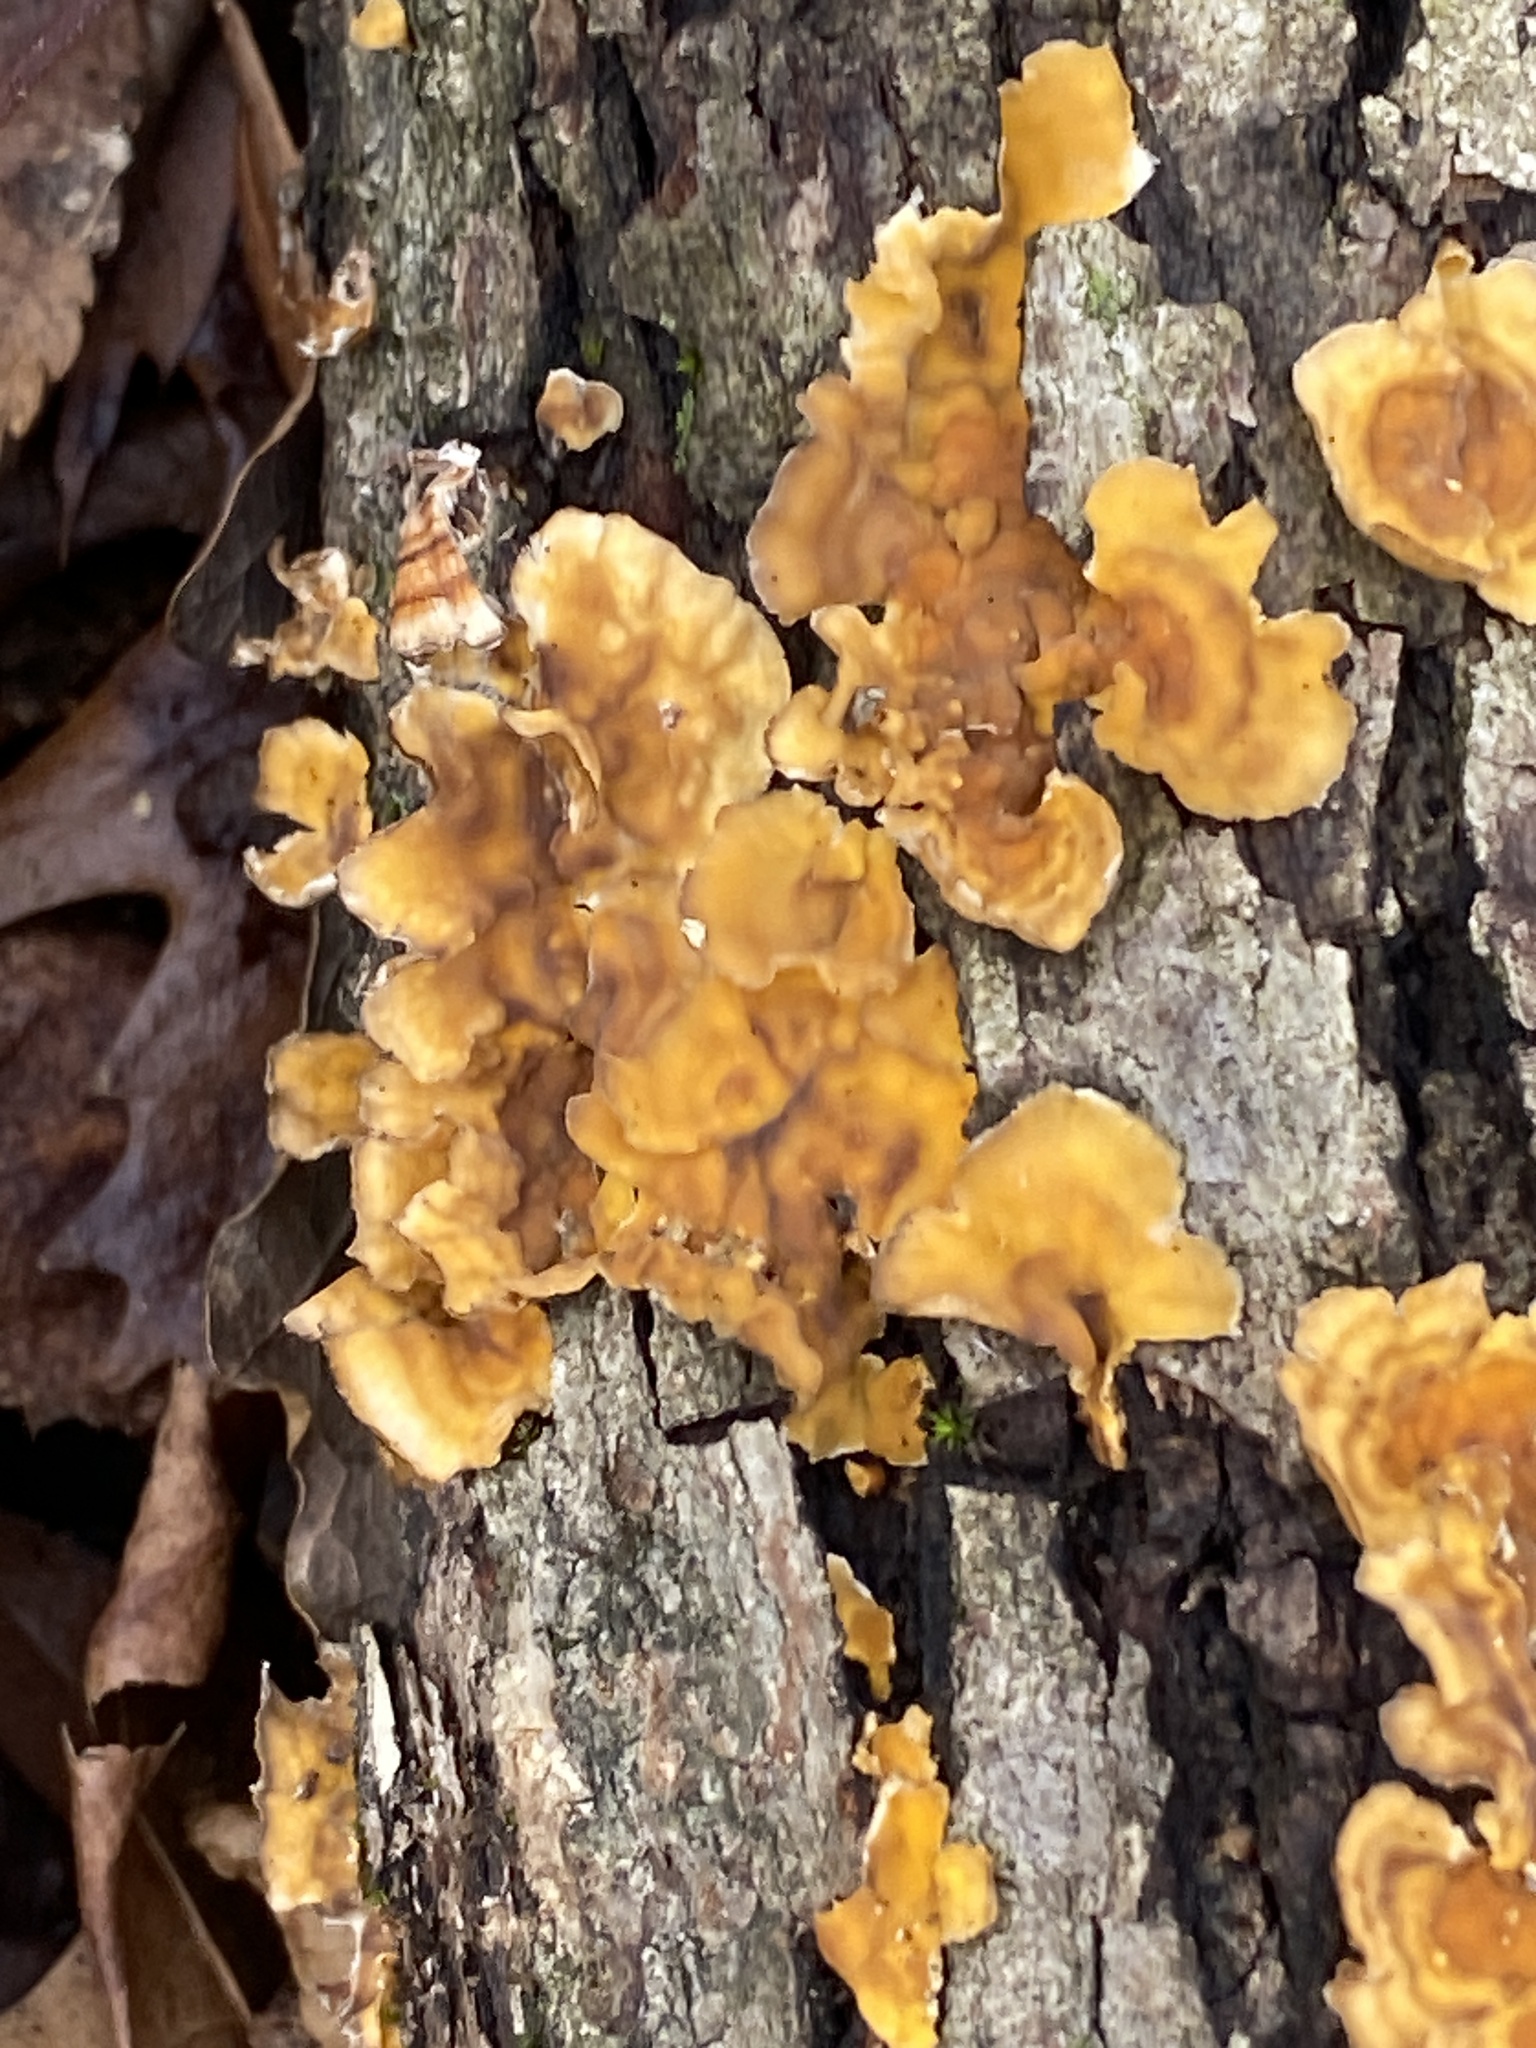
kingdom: Fungi
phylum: Basidiomycota
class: Agaricomycetes
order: Russulales
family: Stereaceae
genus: Stereum
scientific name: Stereum complicatum
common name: Crowded parchment
